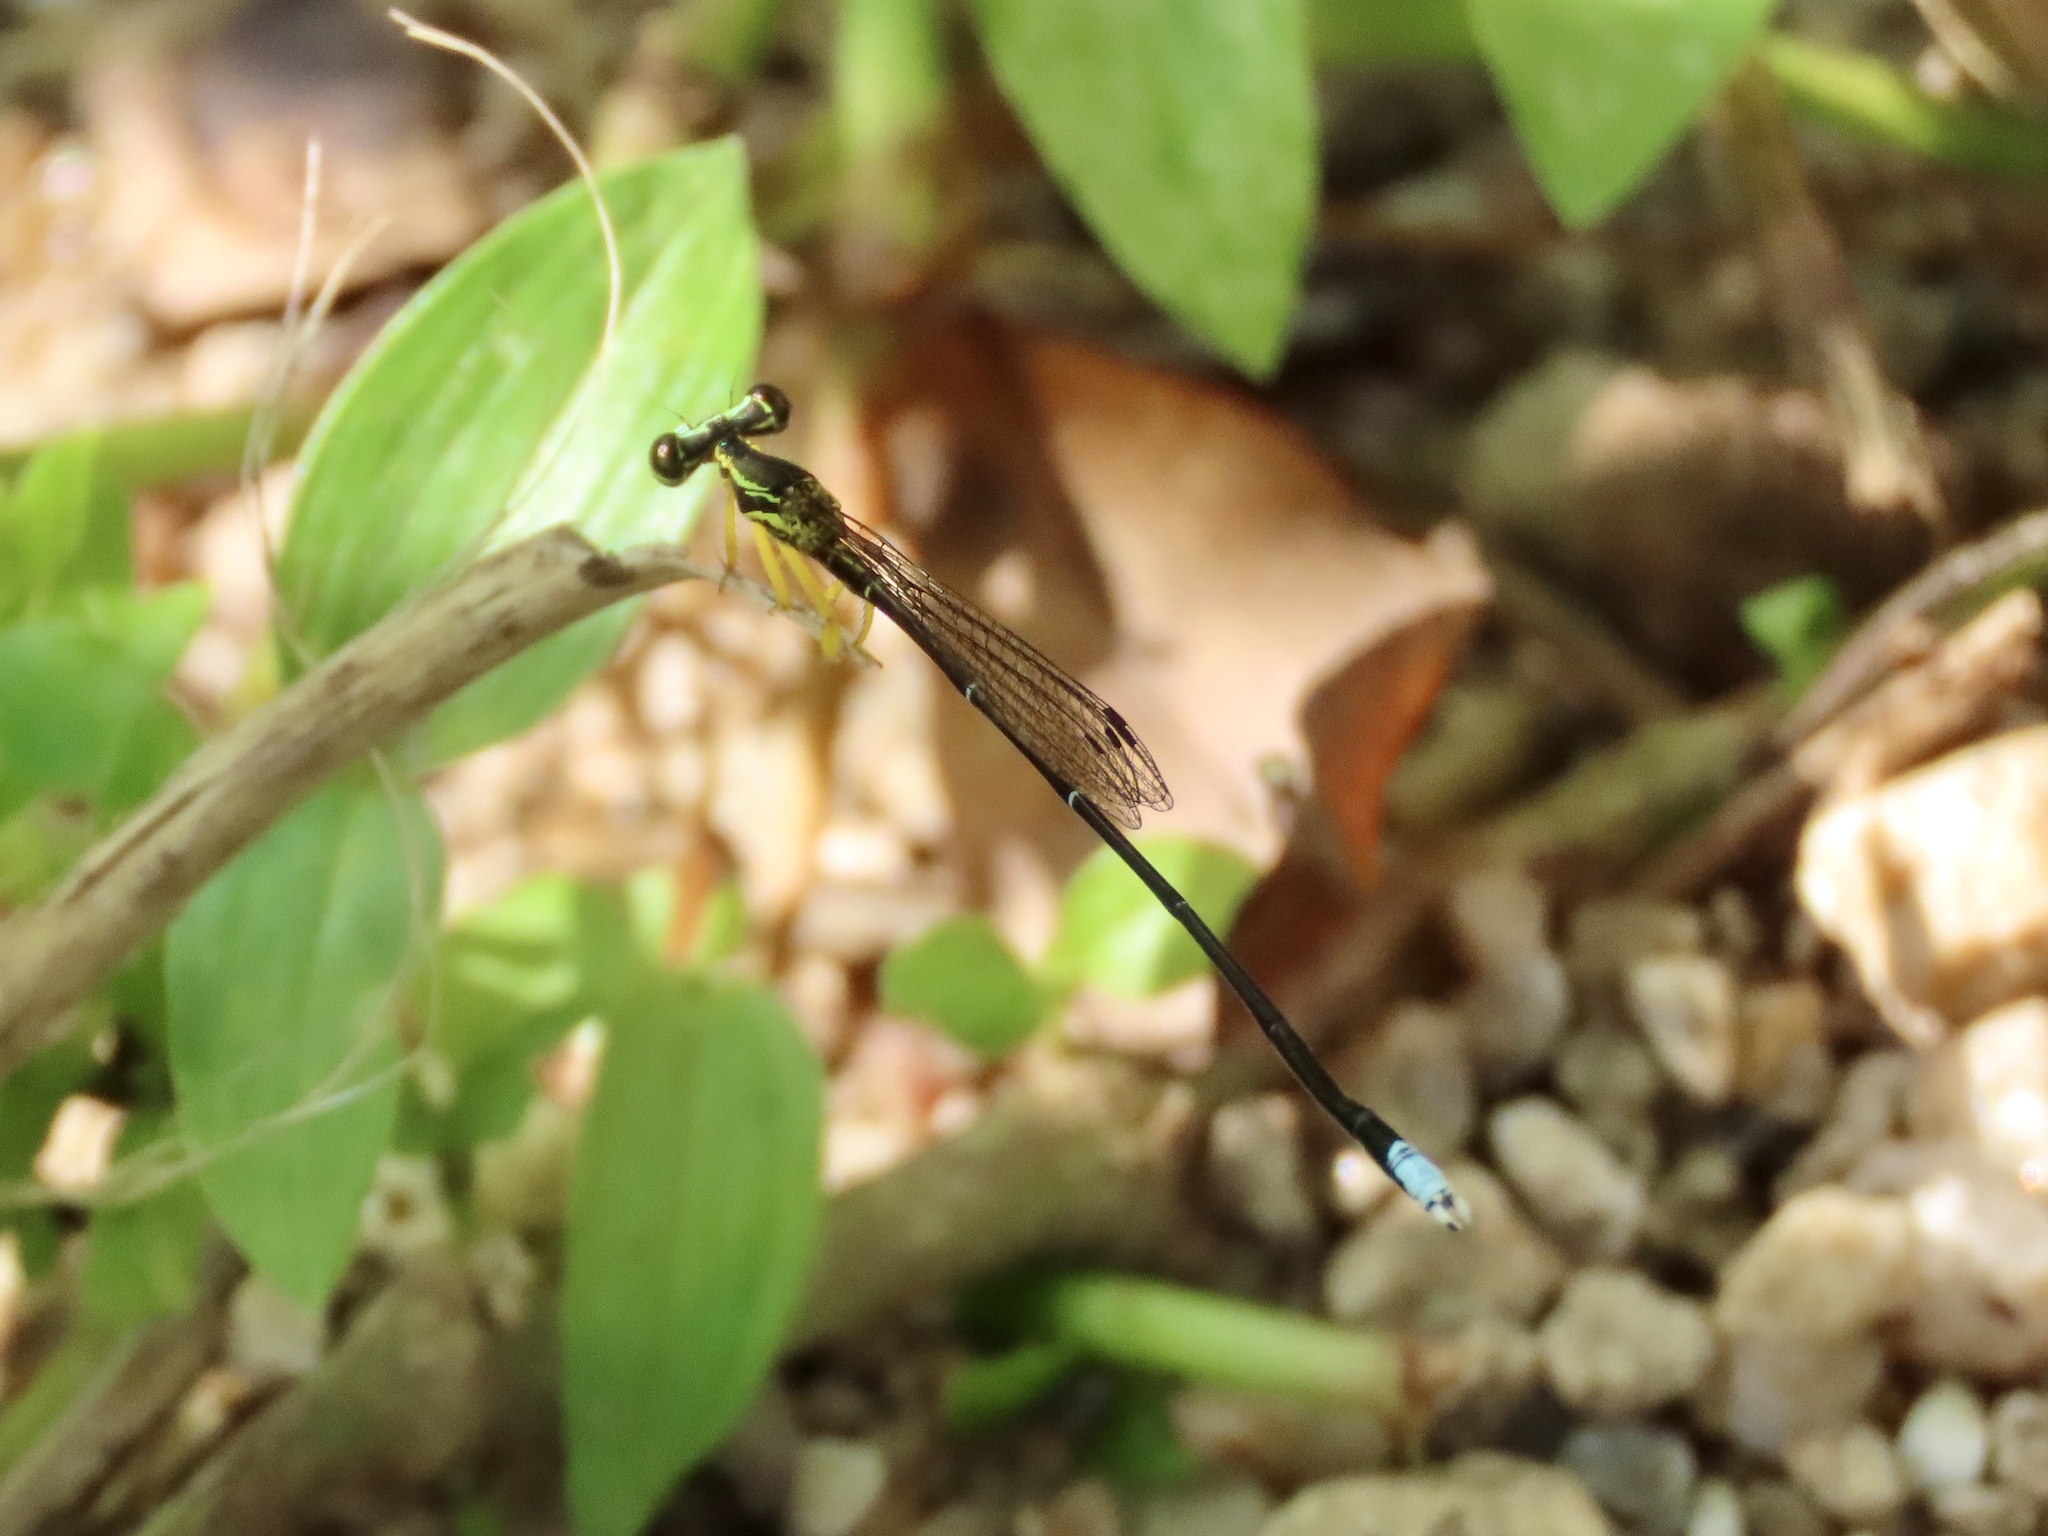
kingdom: Animalia
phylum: Arthropoda
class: Insecta
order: Odonata
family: Platycnemididae
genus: Copera
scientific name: Copera marginipes
